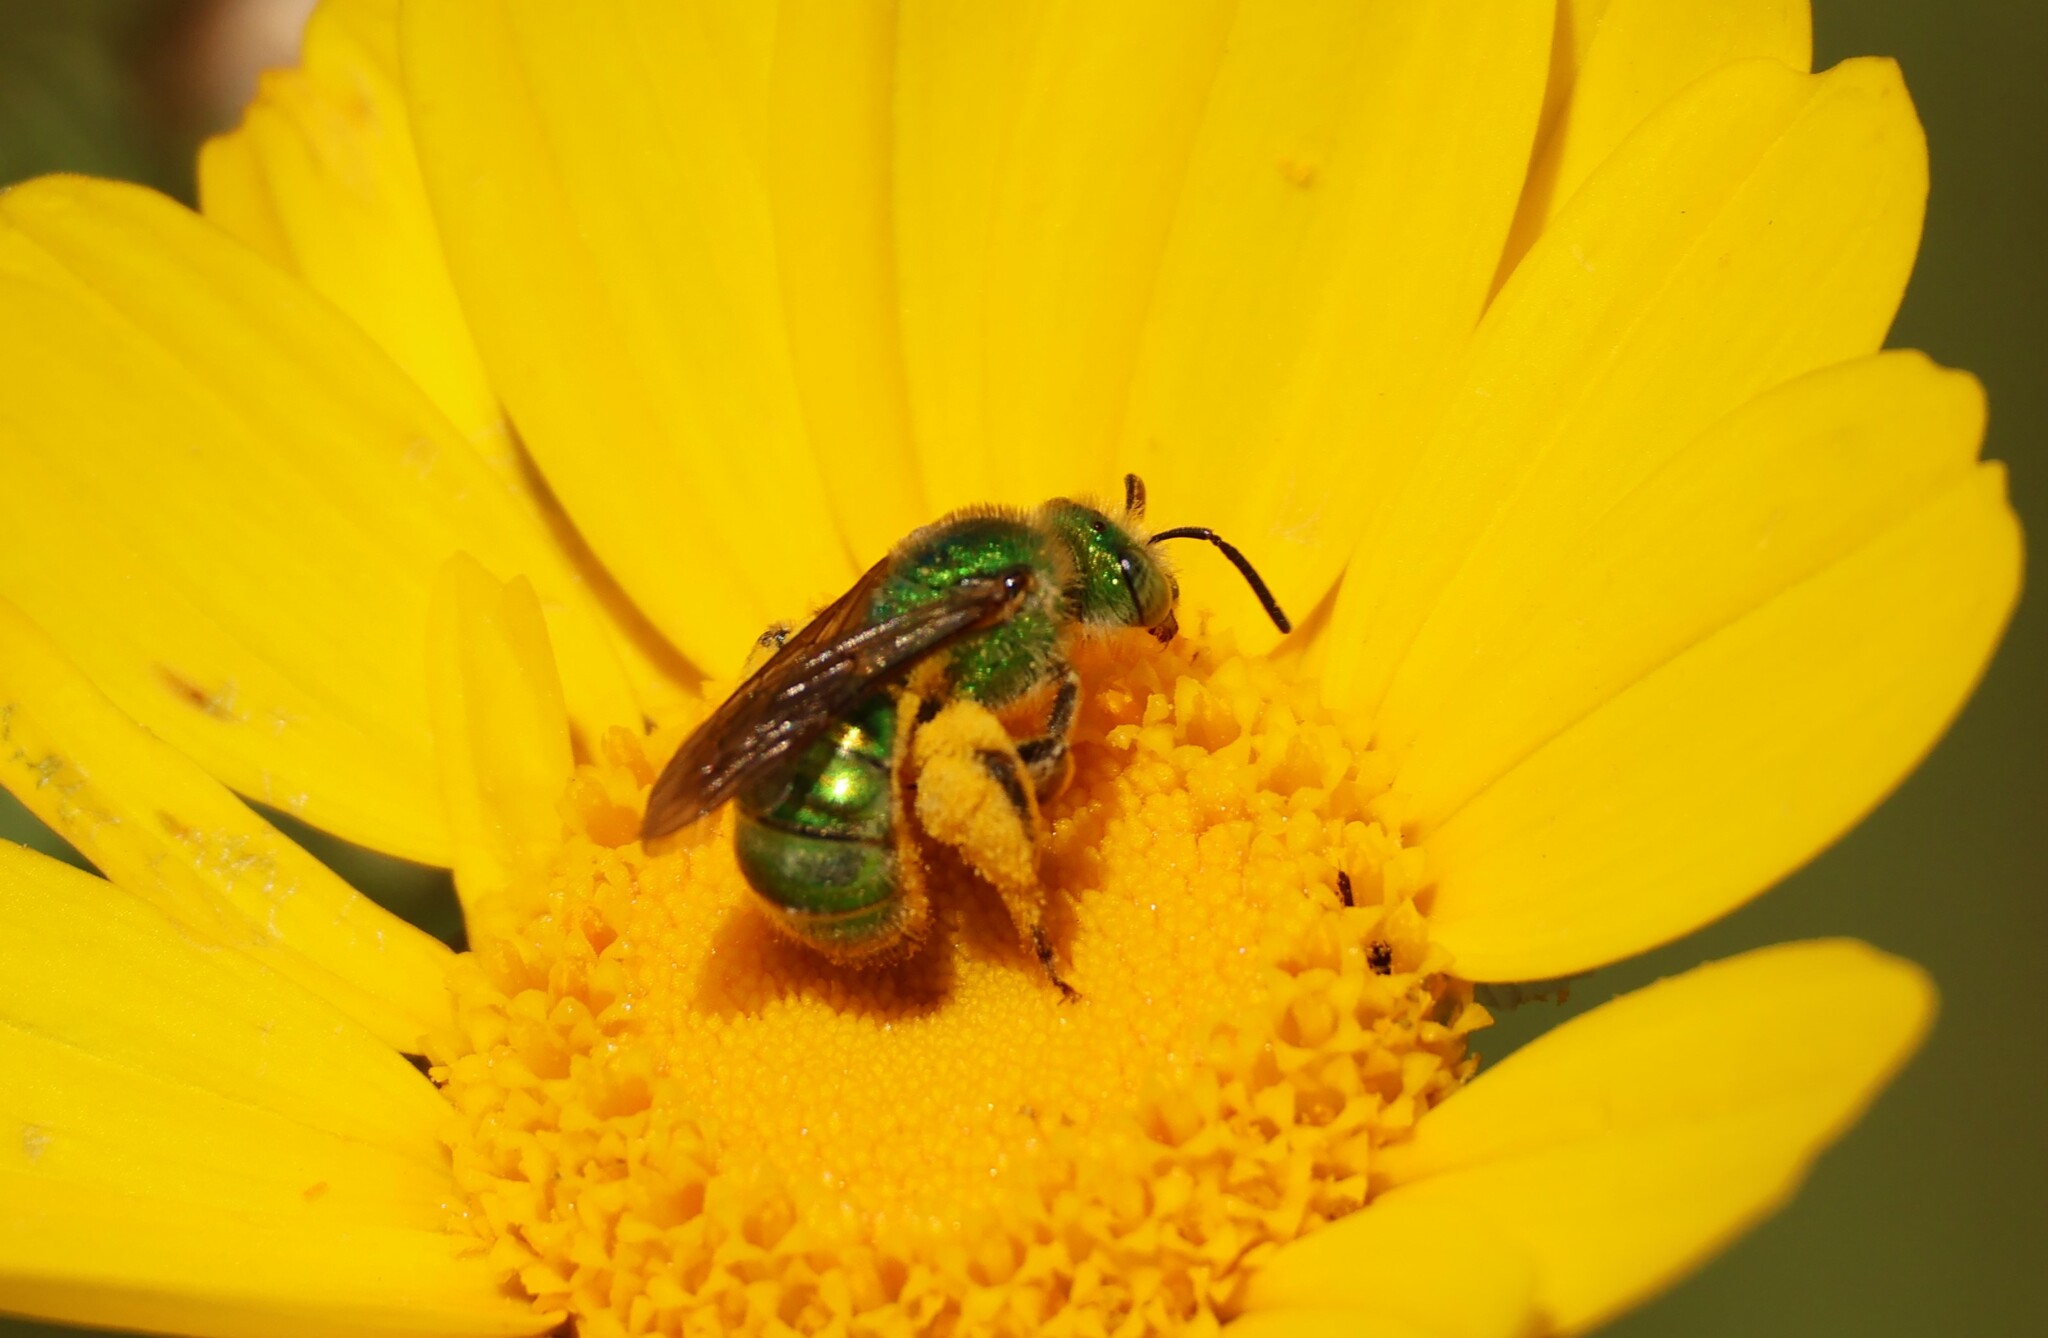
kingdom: Animalia
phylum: Arthropoda
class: Insecta
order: Hymenoptera
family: Halictidae
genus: Agapostemon
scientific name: Agapostemon texanus
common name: Texas striped sweat bee
